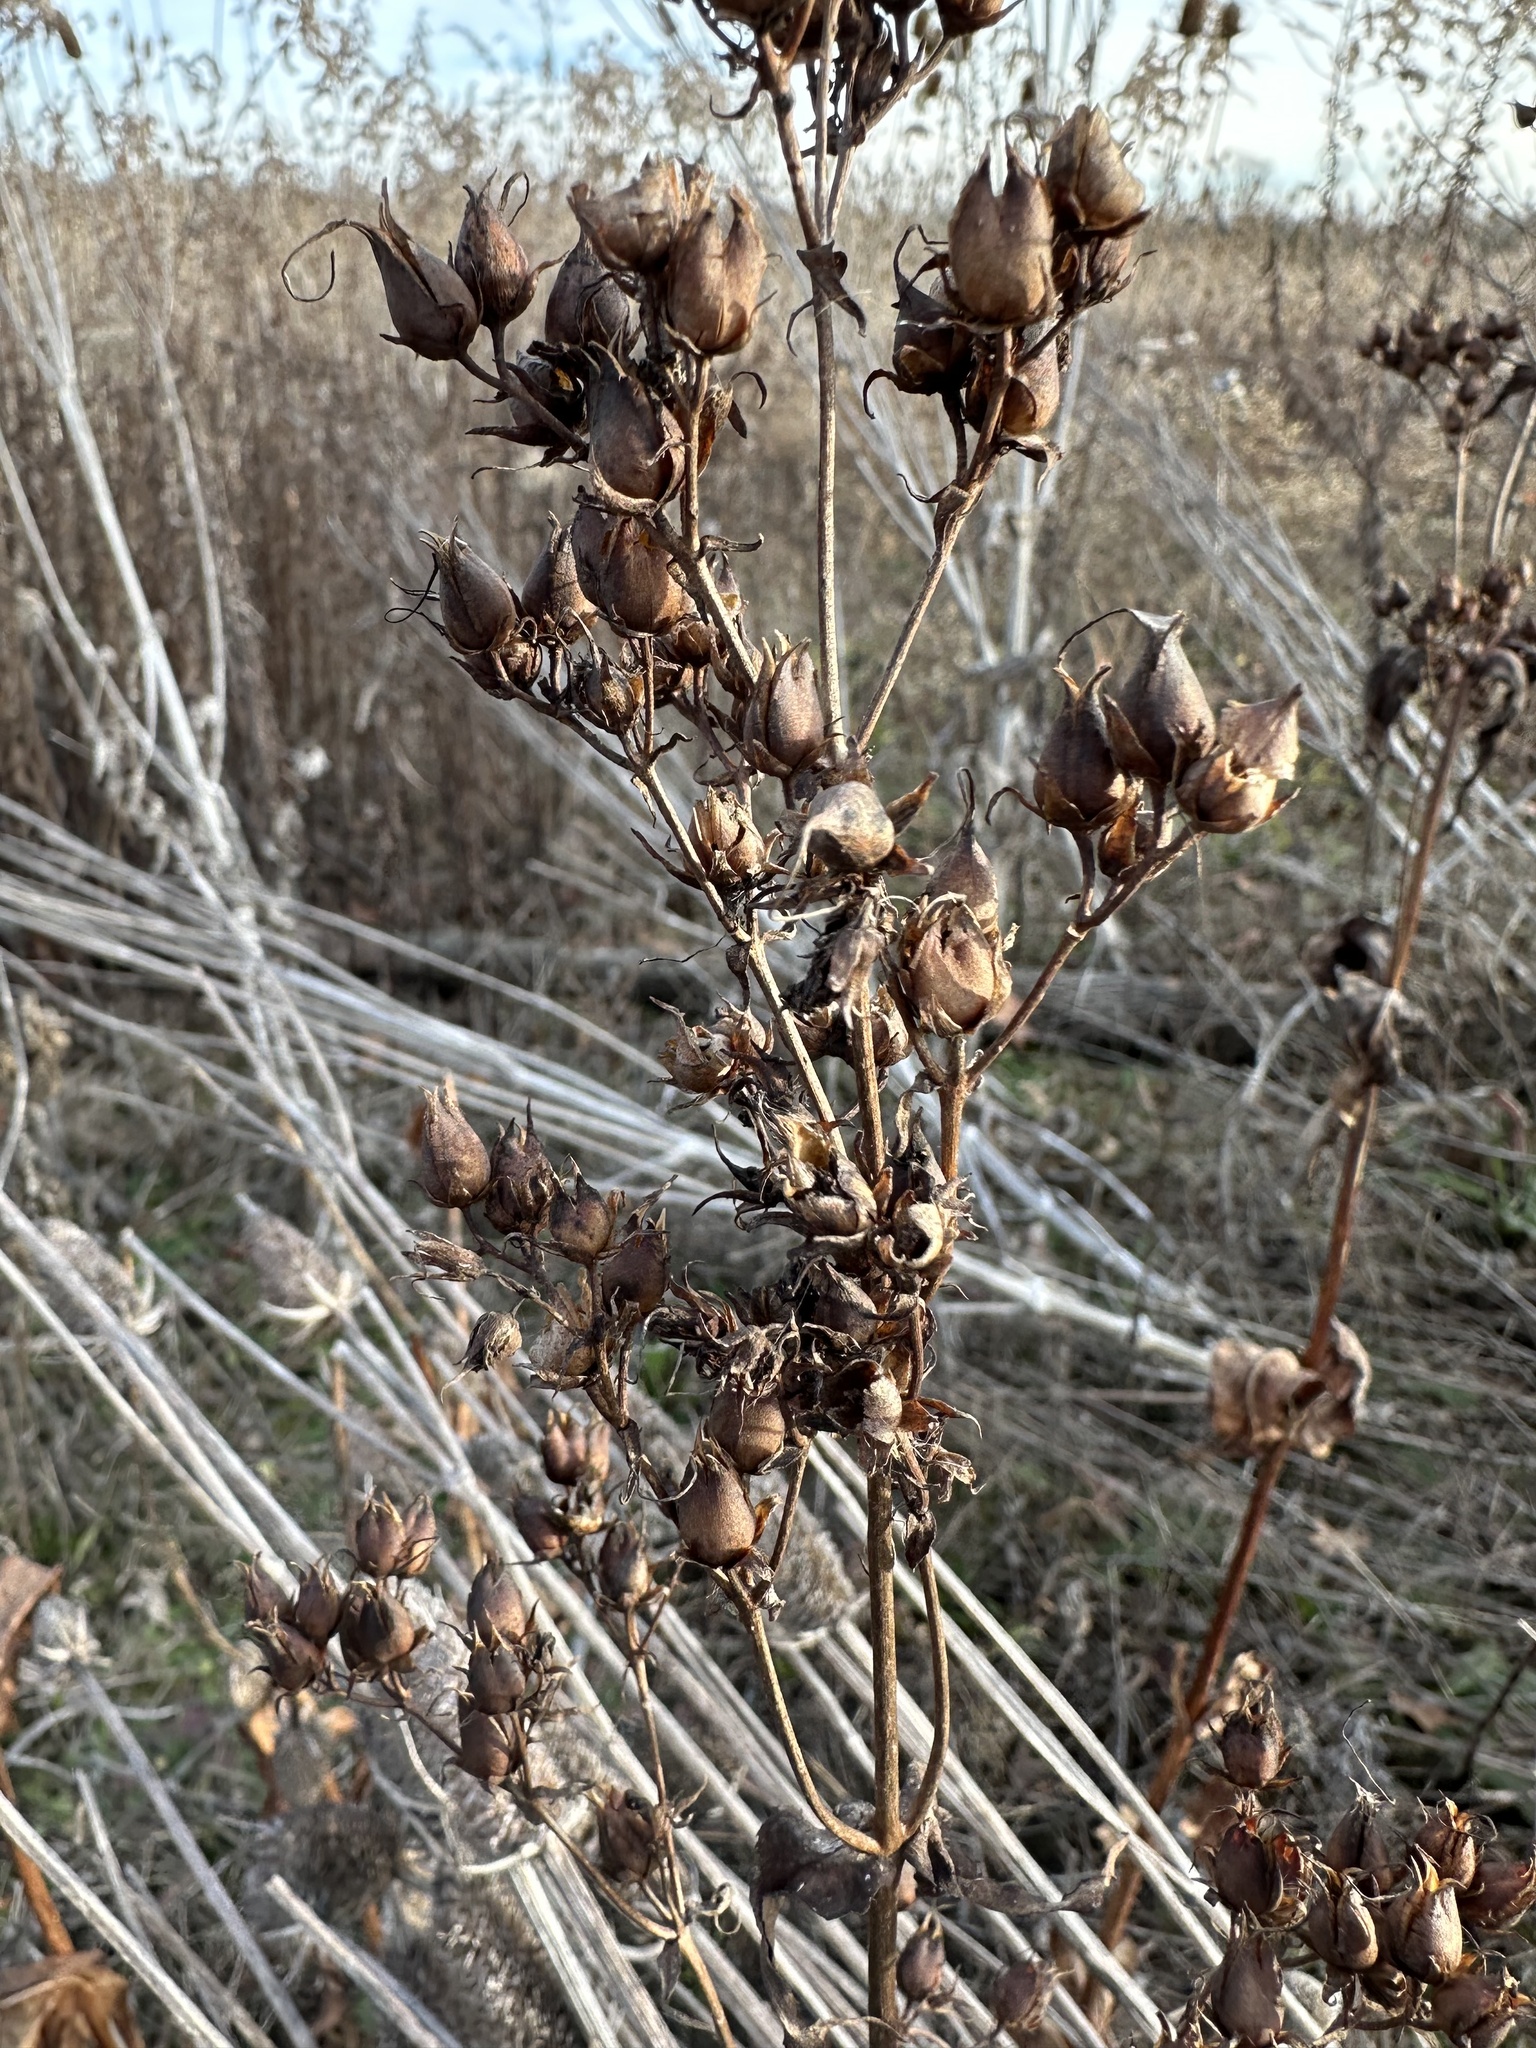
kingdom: Plantae
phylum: Tracheophyta
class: Magnoliopsida
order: Lamiales
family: Plantaginaceae
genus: Penstemon
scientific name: Penstemon digitalis
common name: Foxglove beardtongue
